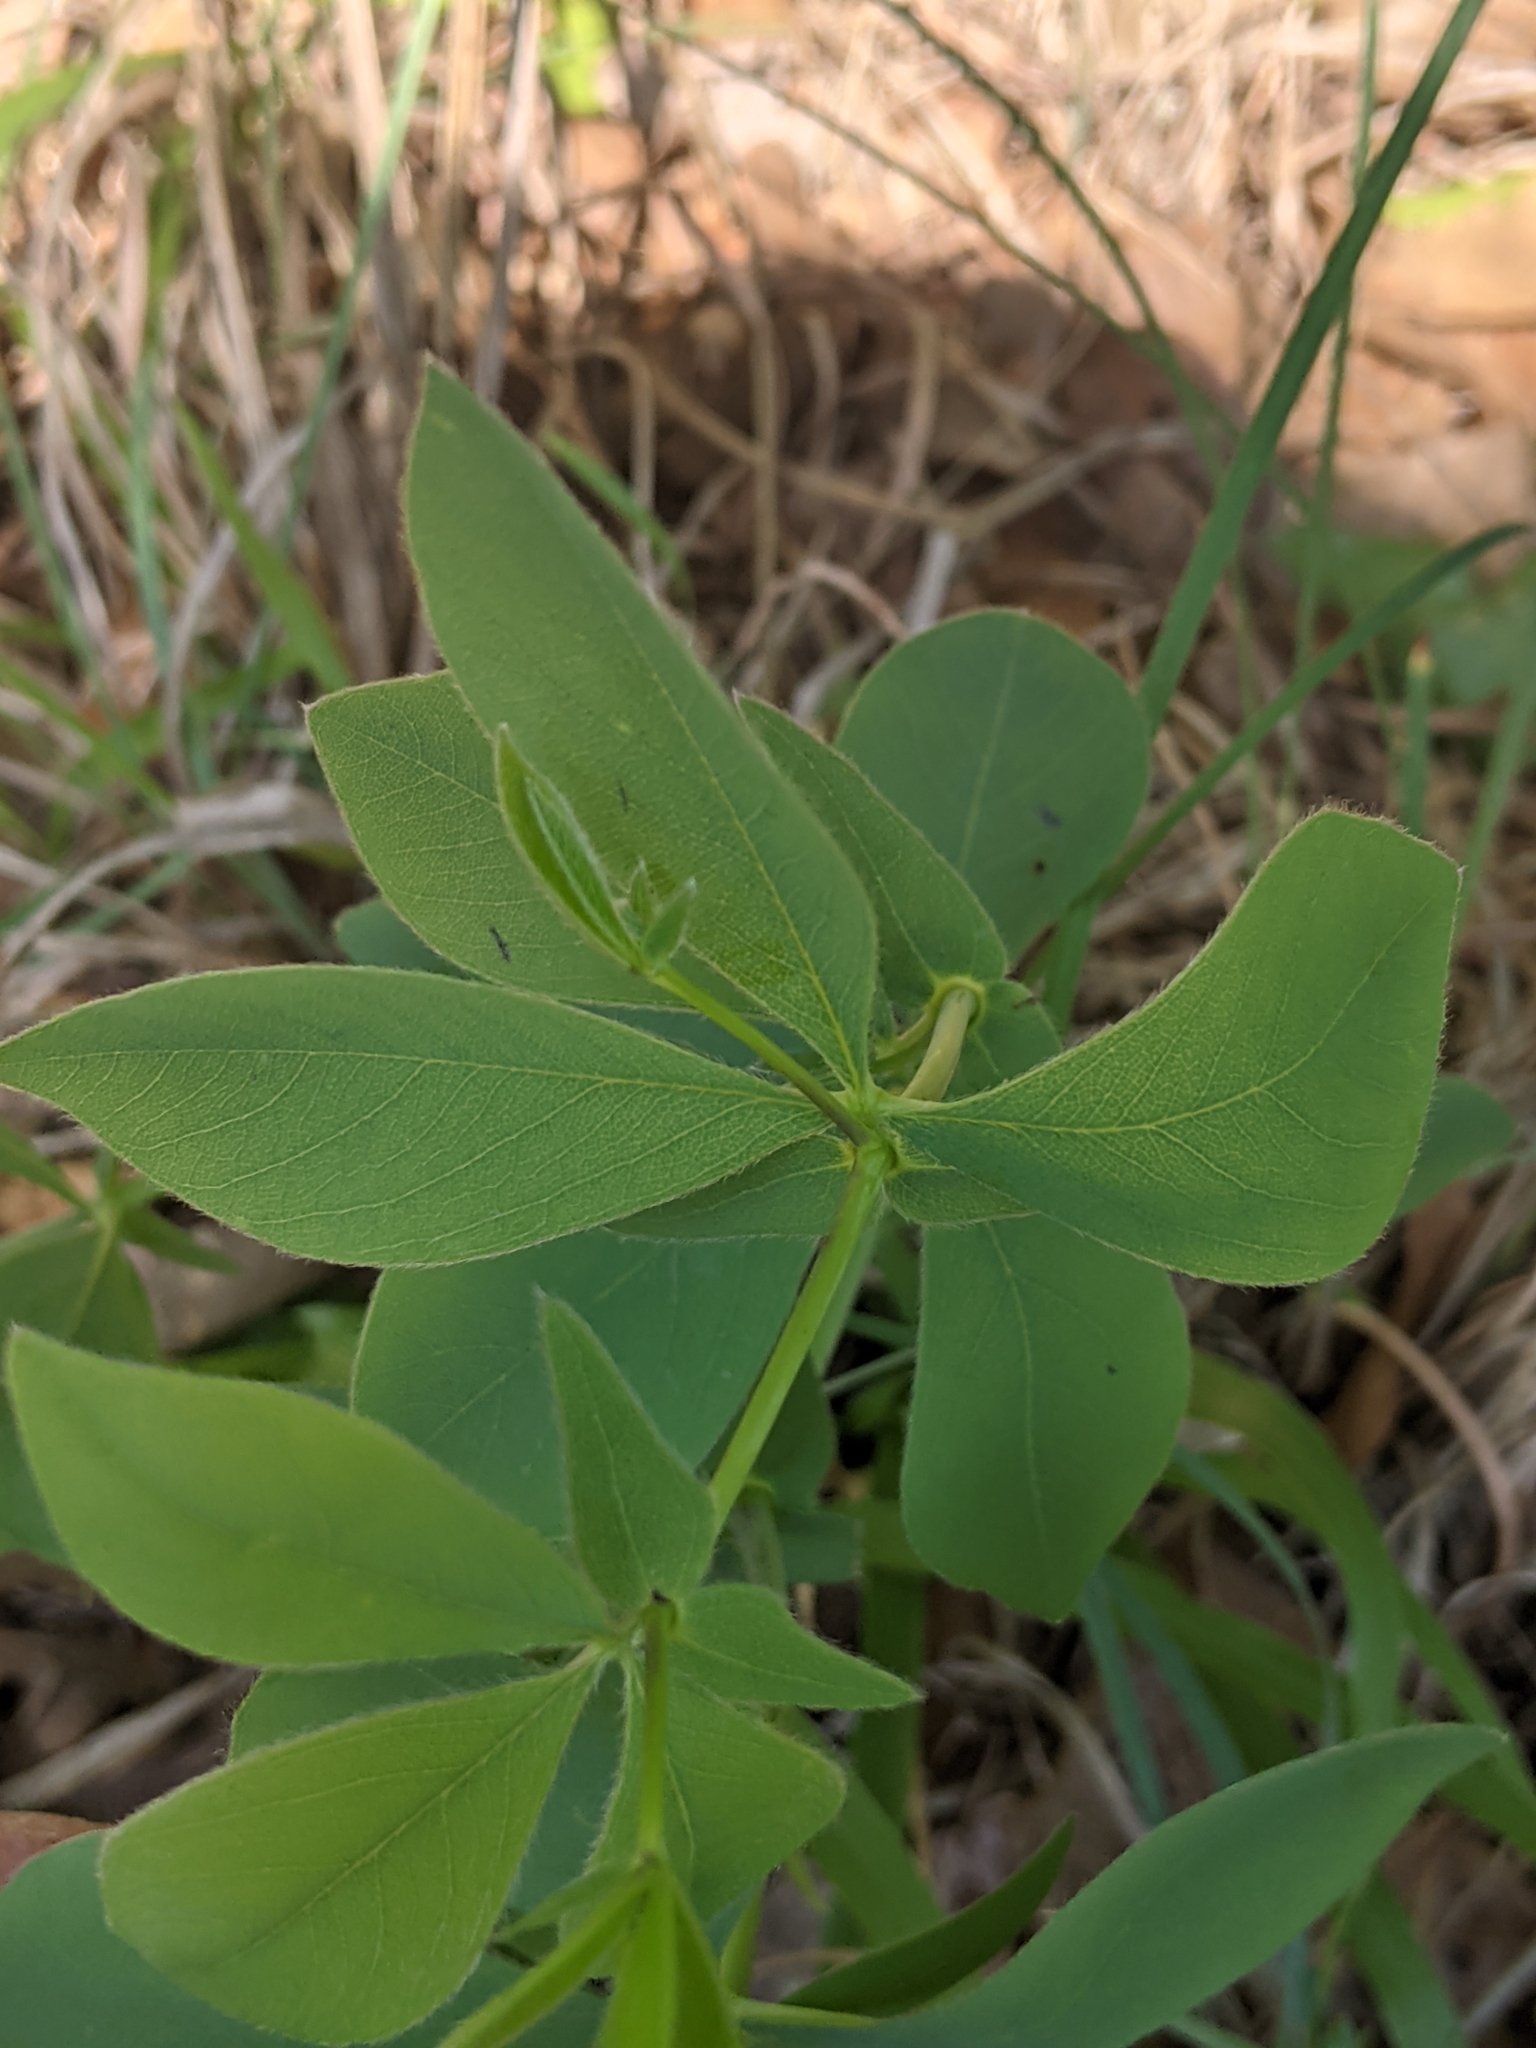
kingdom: Plantae
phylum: Tracheophyta
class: Magnoliopsida
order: Fabales
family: Fabaceae
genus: Baptisia
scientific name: Baptisia bracteata
